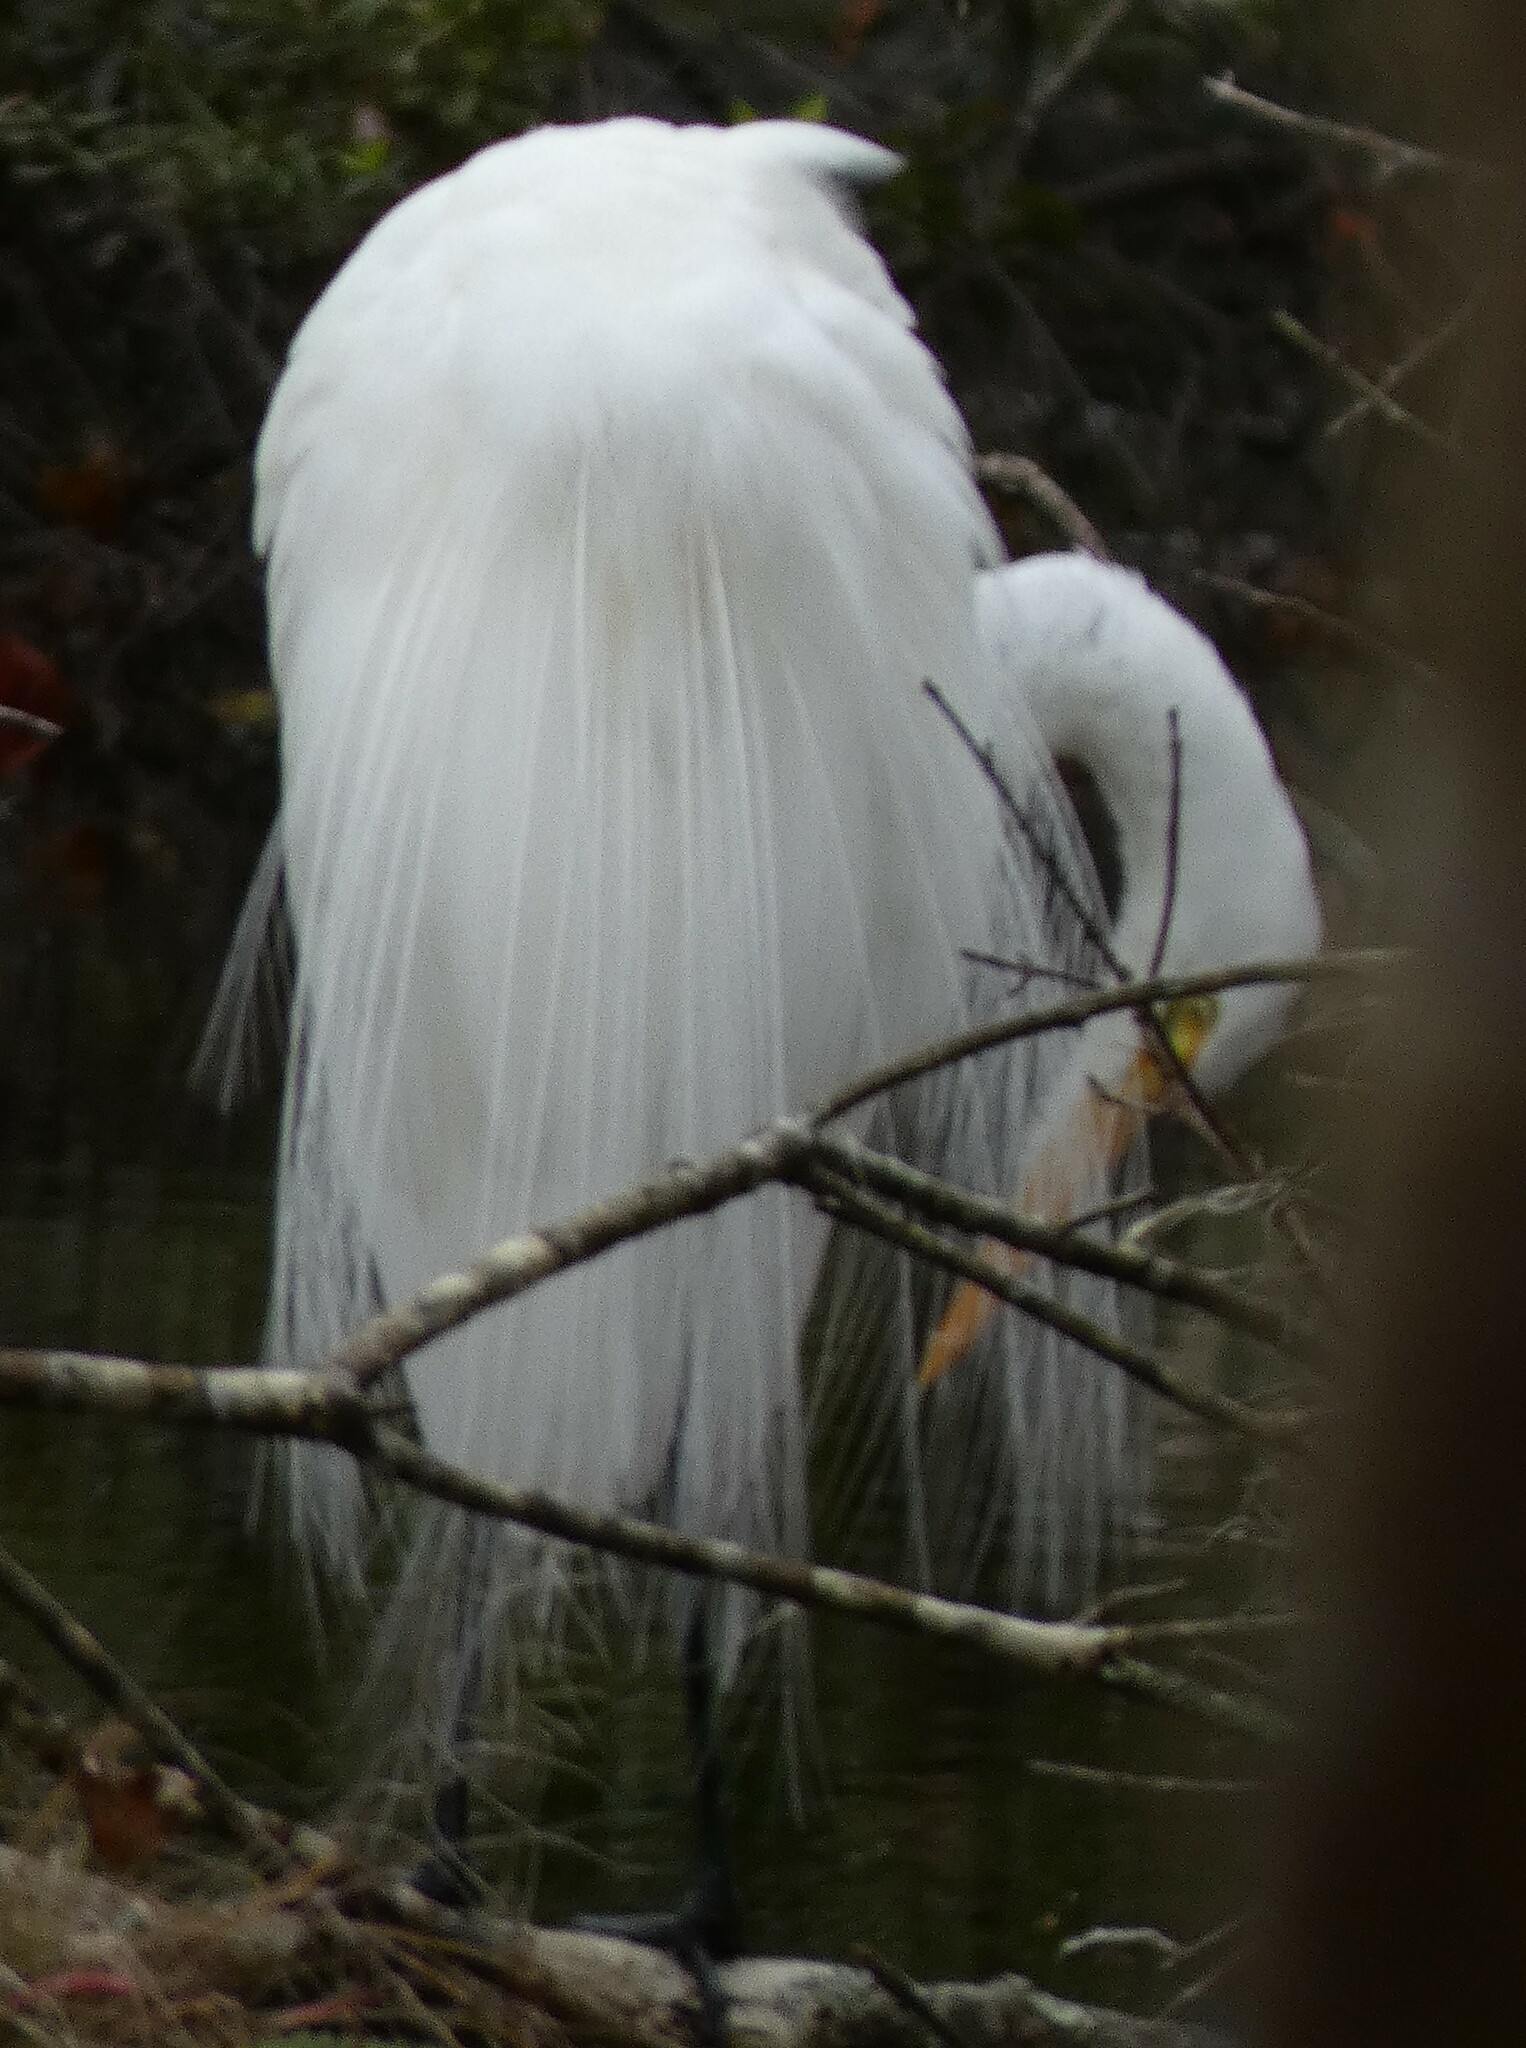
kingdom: Animalia
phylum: Chordata
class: Aves
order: Pelecaniformes
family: Ardeidae
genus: Ardea
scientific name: Ardea alba
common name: Great egret
